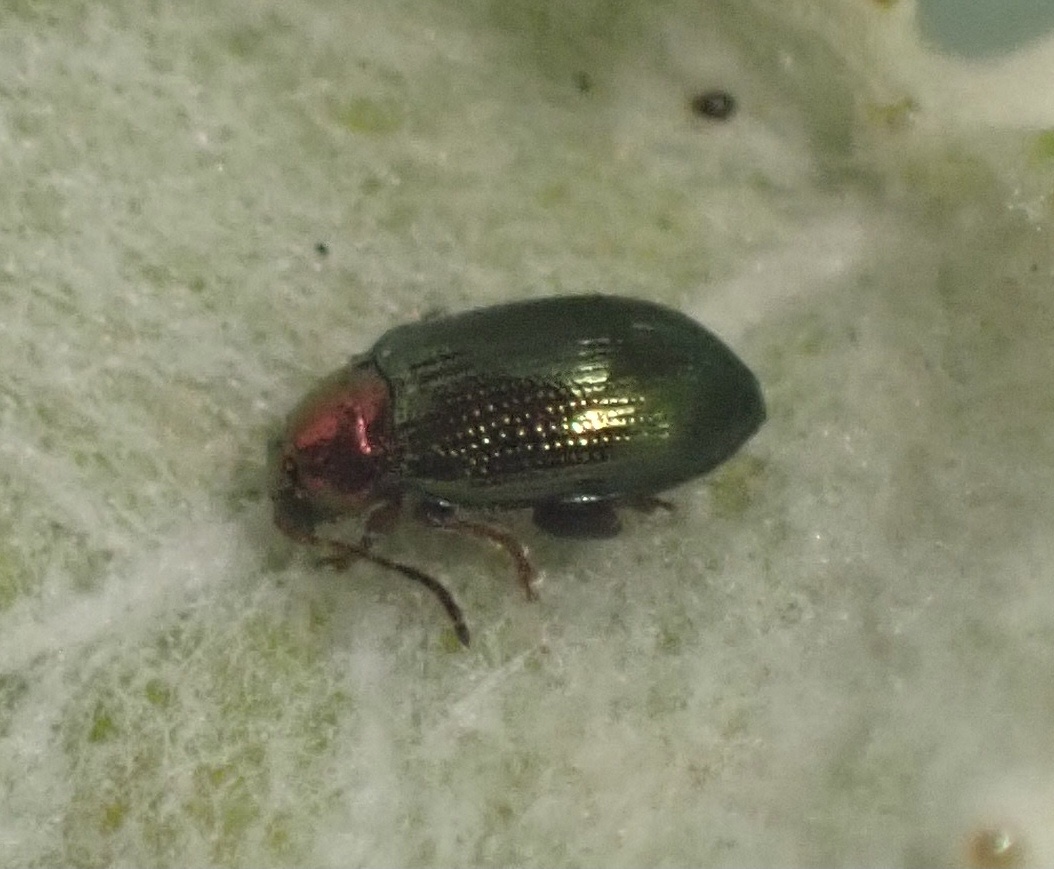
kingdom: Animalia
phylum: Arthropoda
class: Insecta
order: Coleoptera
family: Chrysomelidae
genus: Crepidodera
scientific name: Crepidodera aurata
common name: Willow flea beetle
